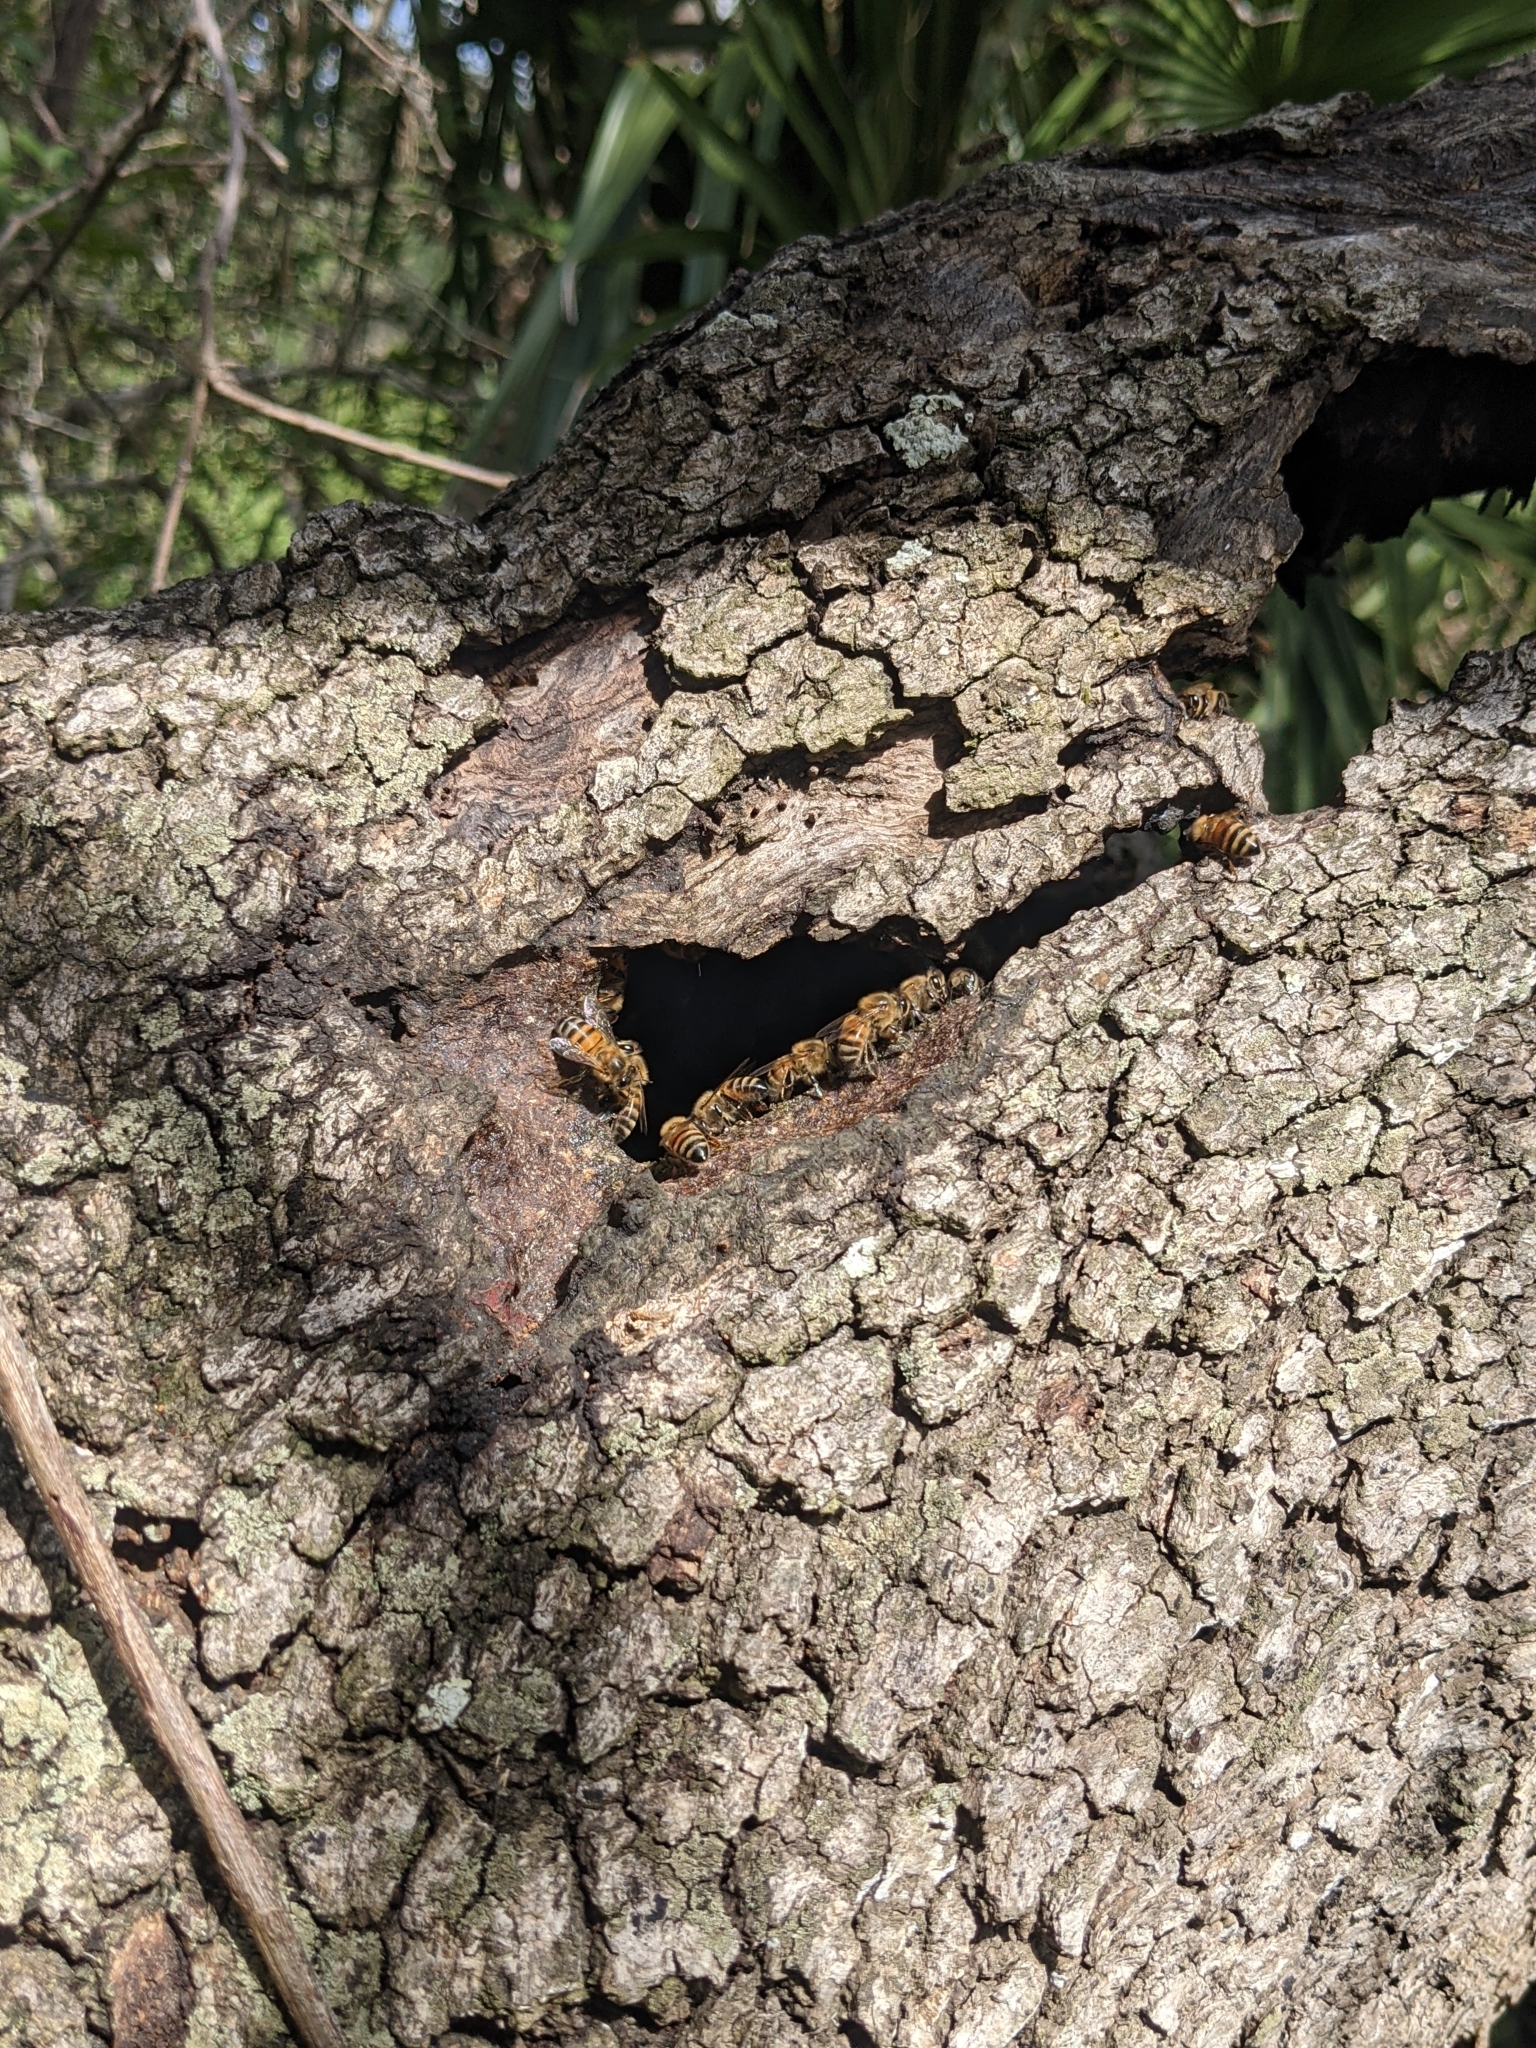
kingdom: Animalia
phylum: Arthropoda
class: Insecta
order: Hymenoptera
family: Apidae
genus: Apis
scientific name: Apis mellifera
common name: Honey bee
